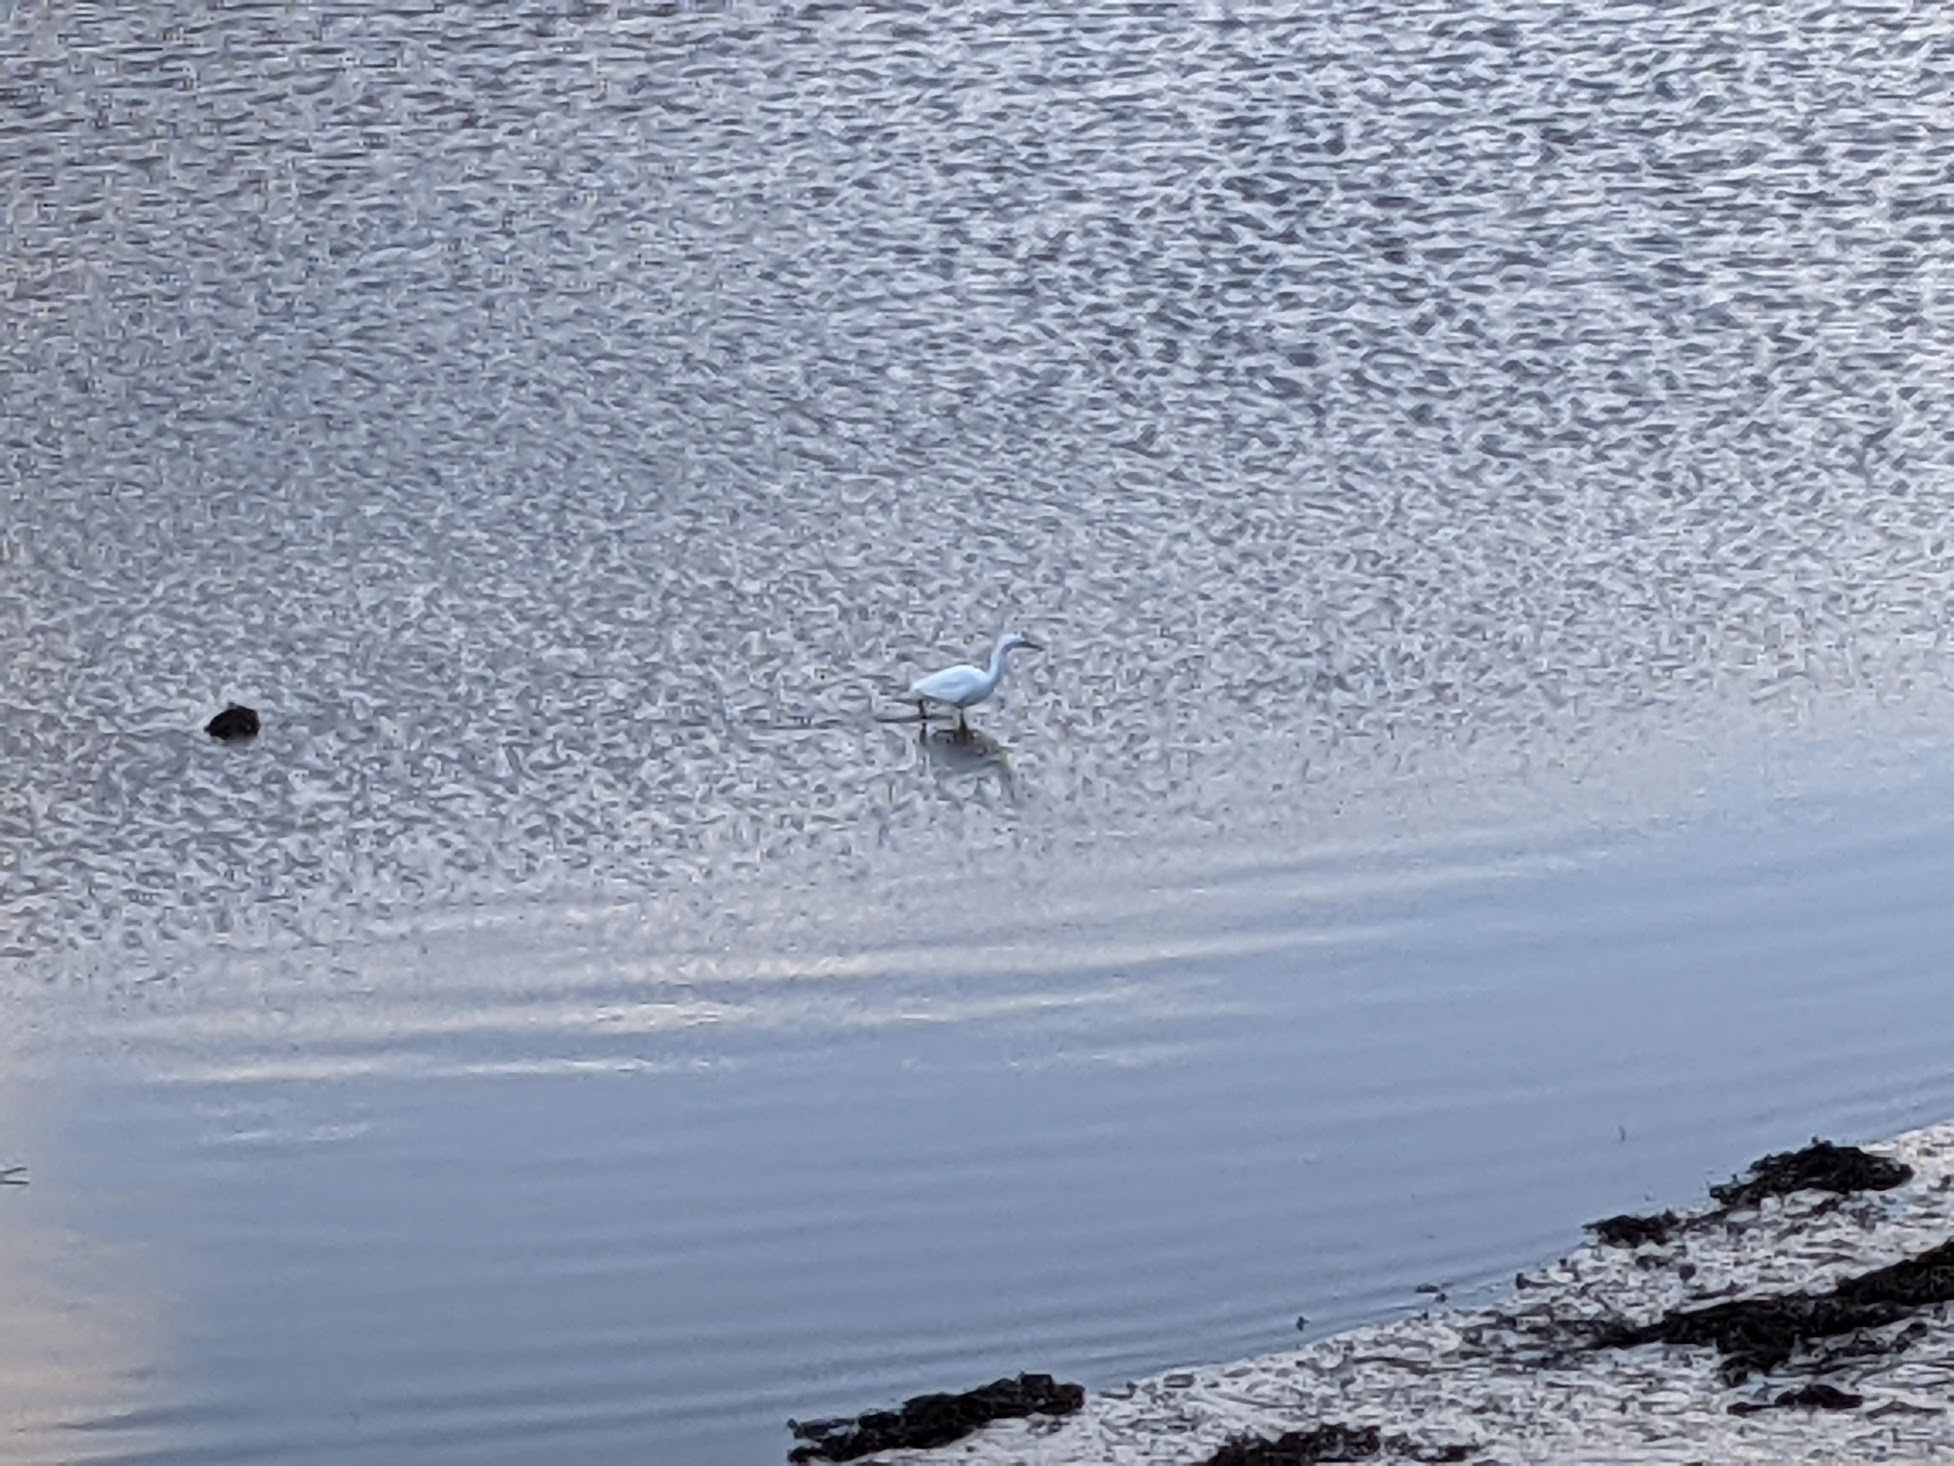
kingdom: Animalia
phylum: Chordata
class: Aves
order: Pelecaniformes
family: Ardeidae
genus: Egretta
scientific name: Egretta garzetta
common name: Little egret
